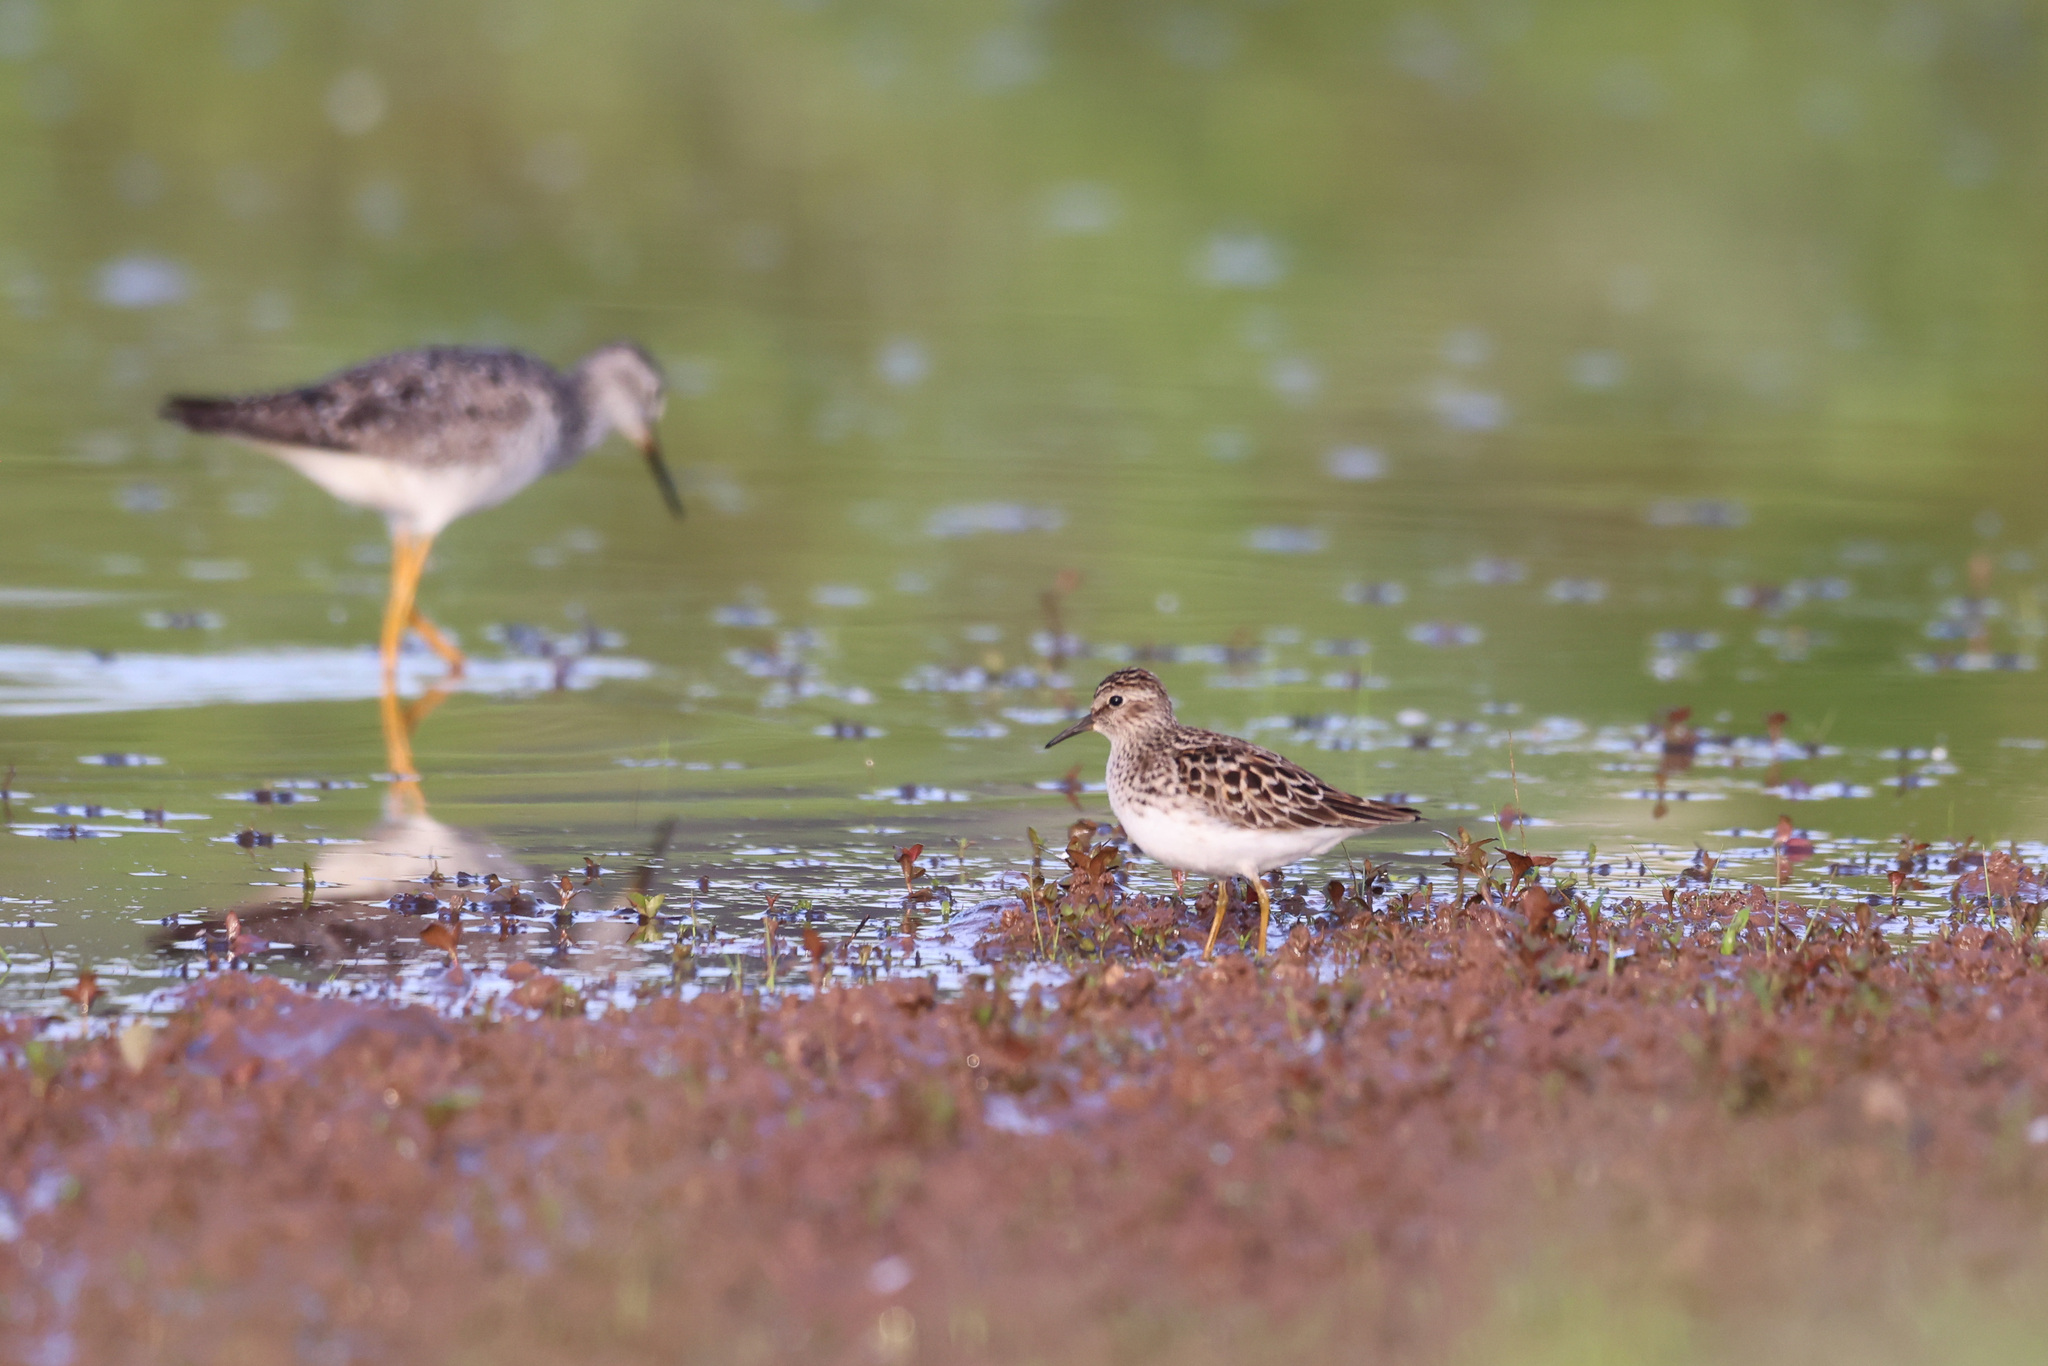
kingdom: Animalia
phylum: Chordata
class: Aves
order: Charadriiformes
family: Scolopacidae
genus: Calidris
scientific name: Calidris minutilla
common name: Least sandpiper
